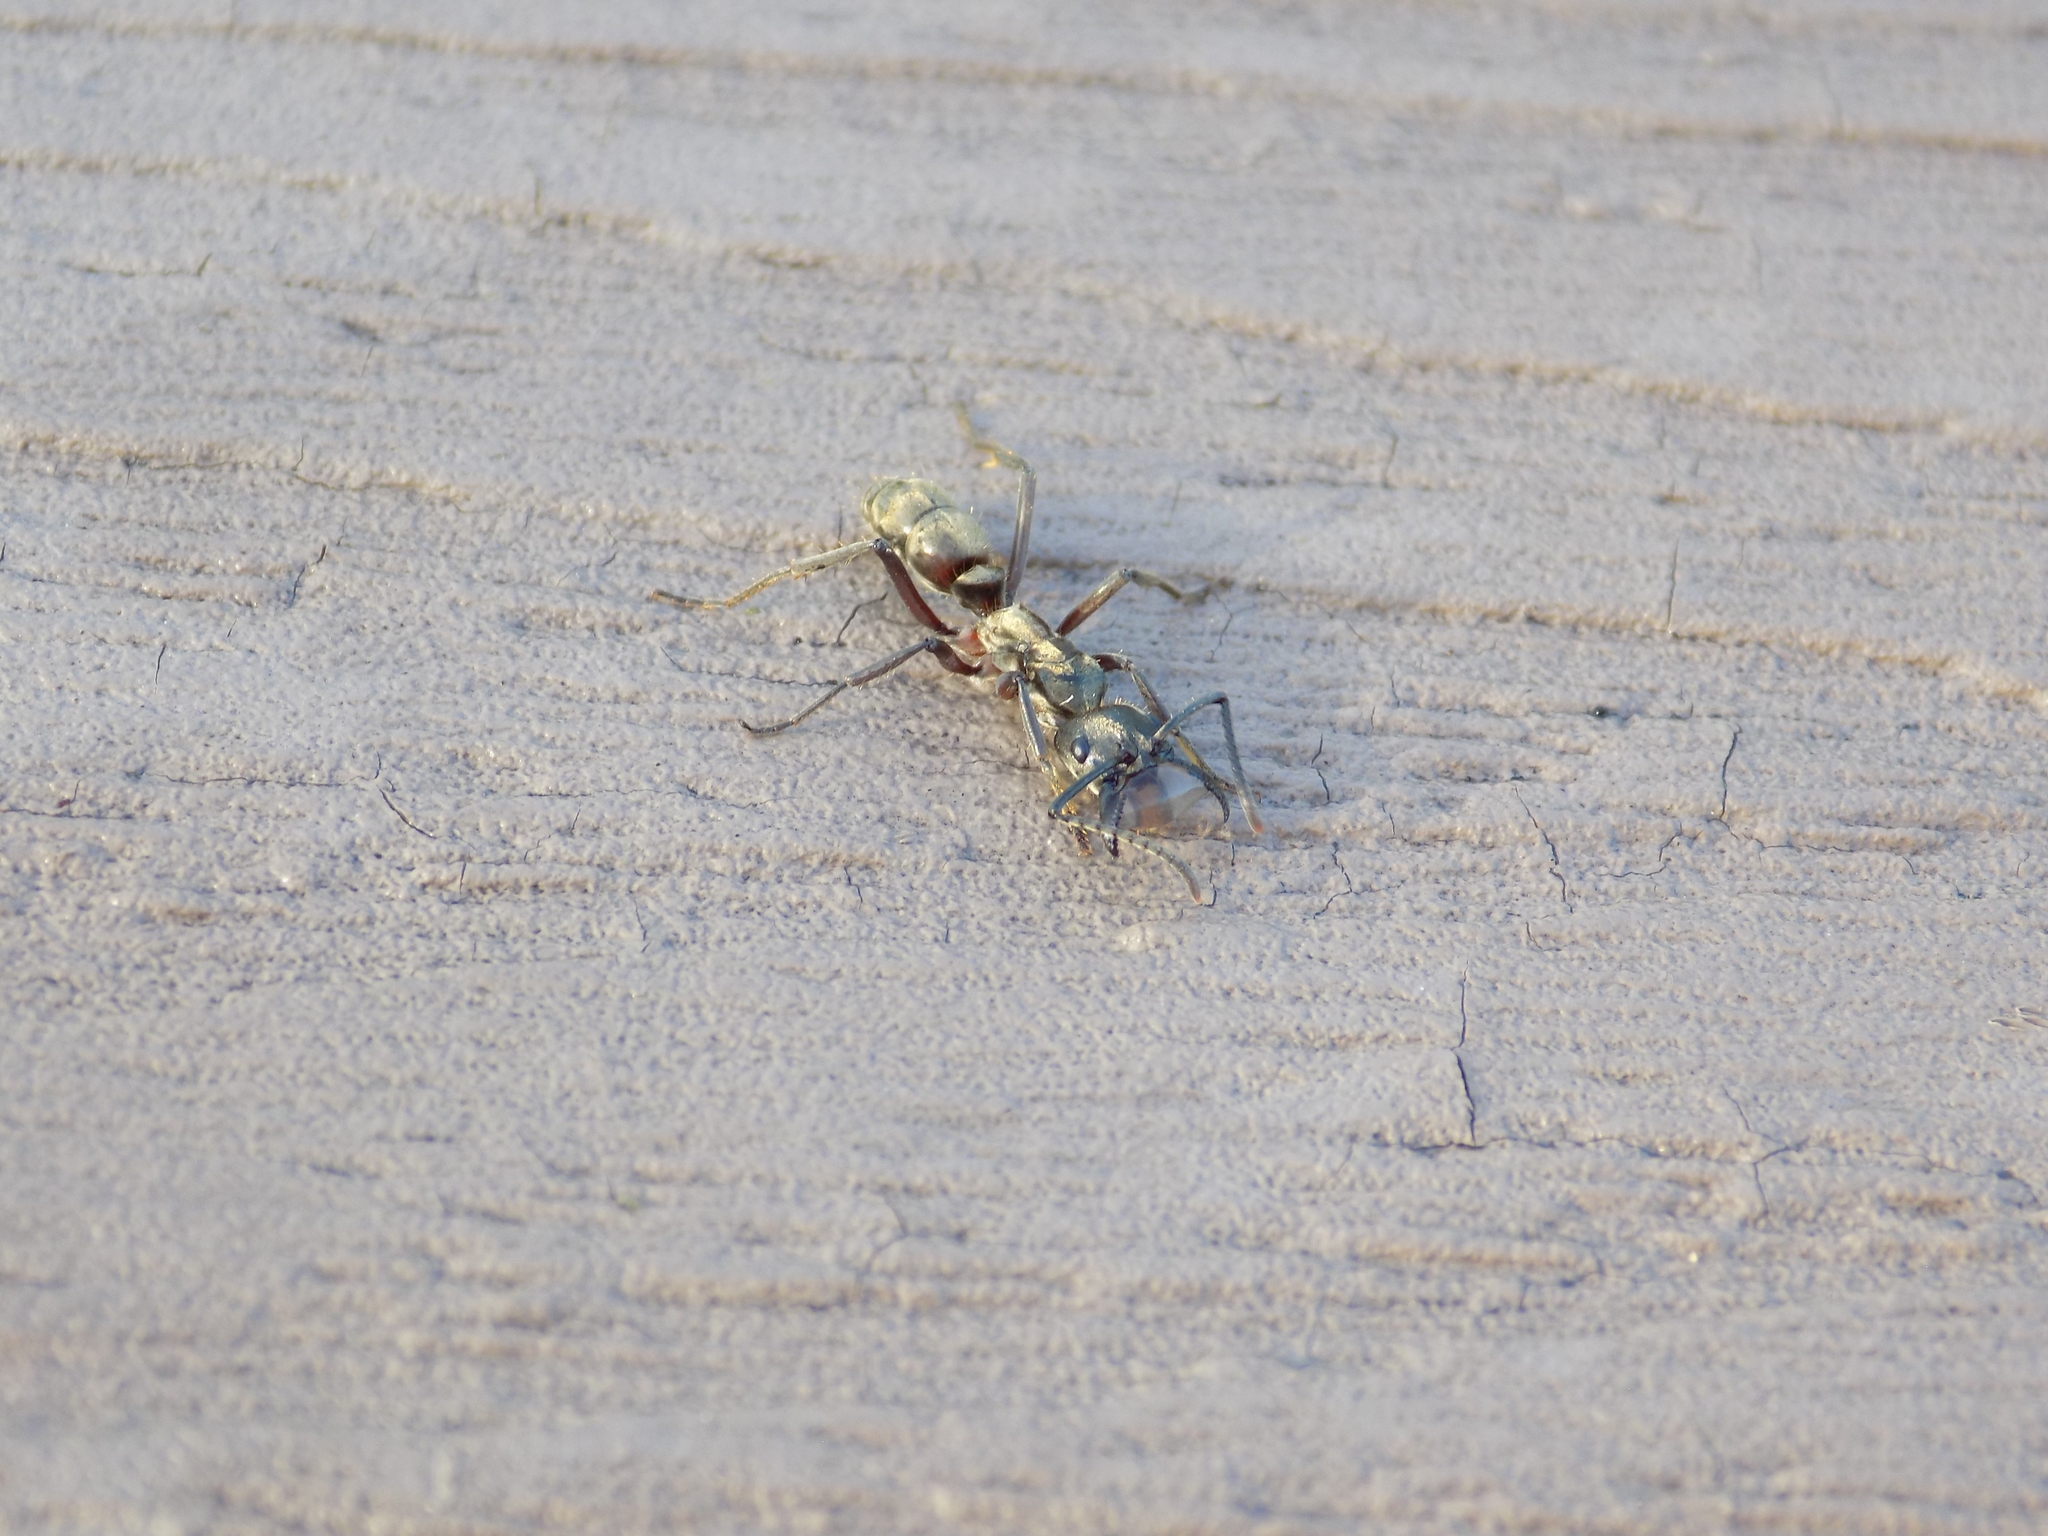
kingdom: Animalia
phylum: Arthropoda
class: Insecta
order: Hymenoptera
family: Formicidae
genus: Pachycondyla
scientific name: Pachycondyla villosa
